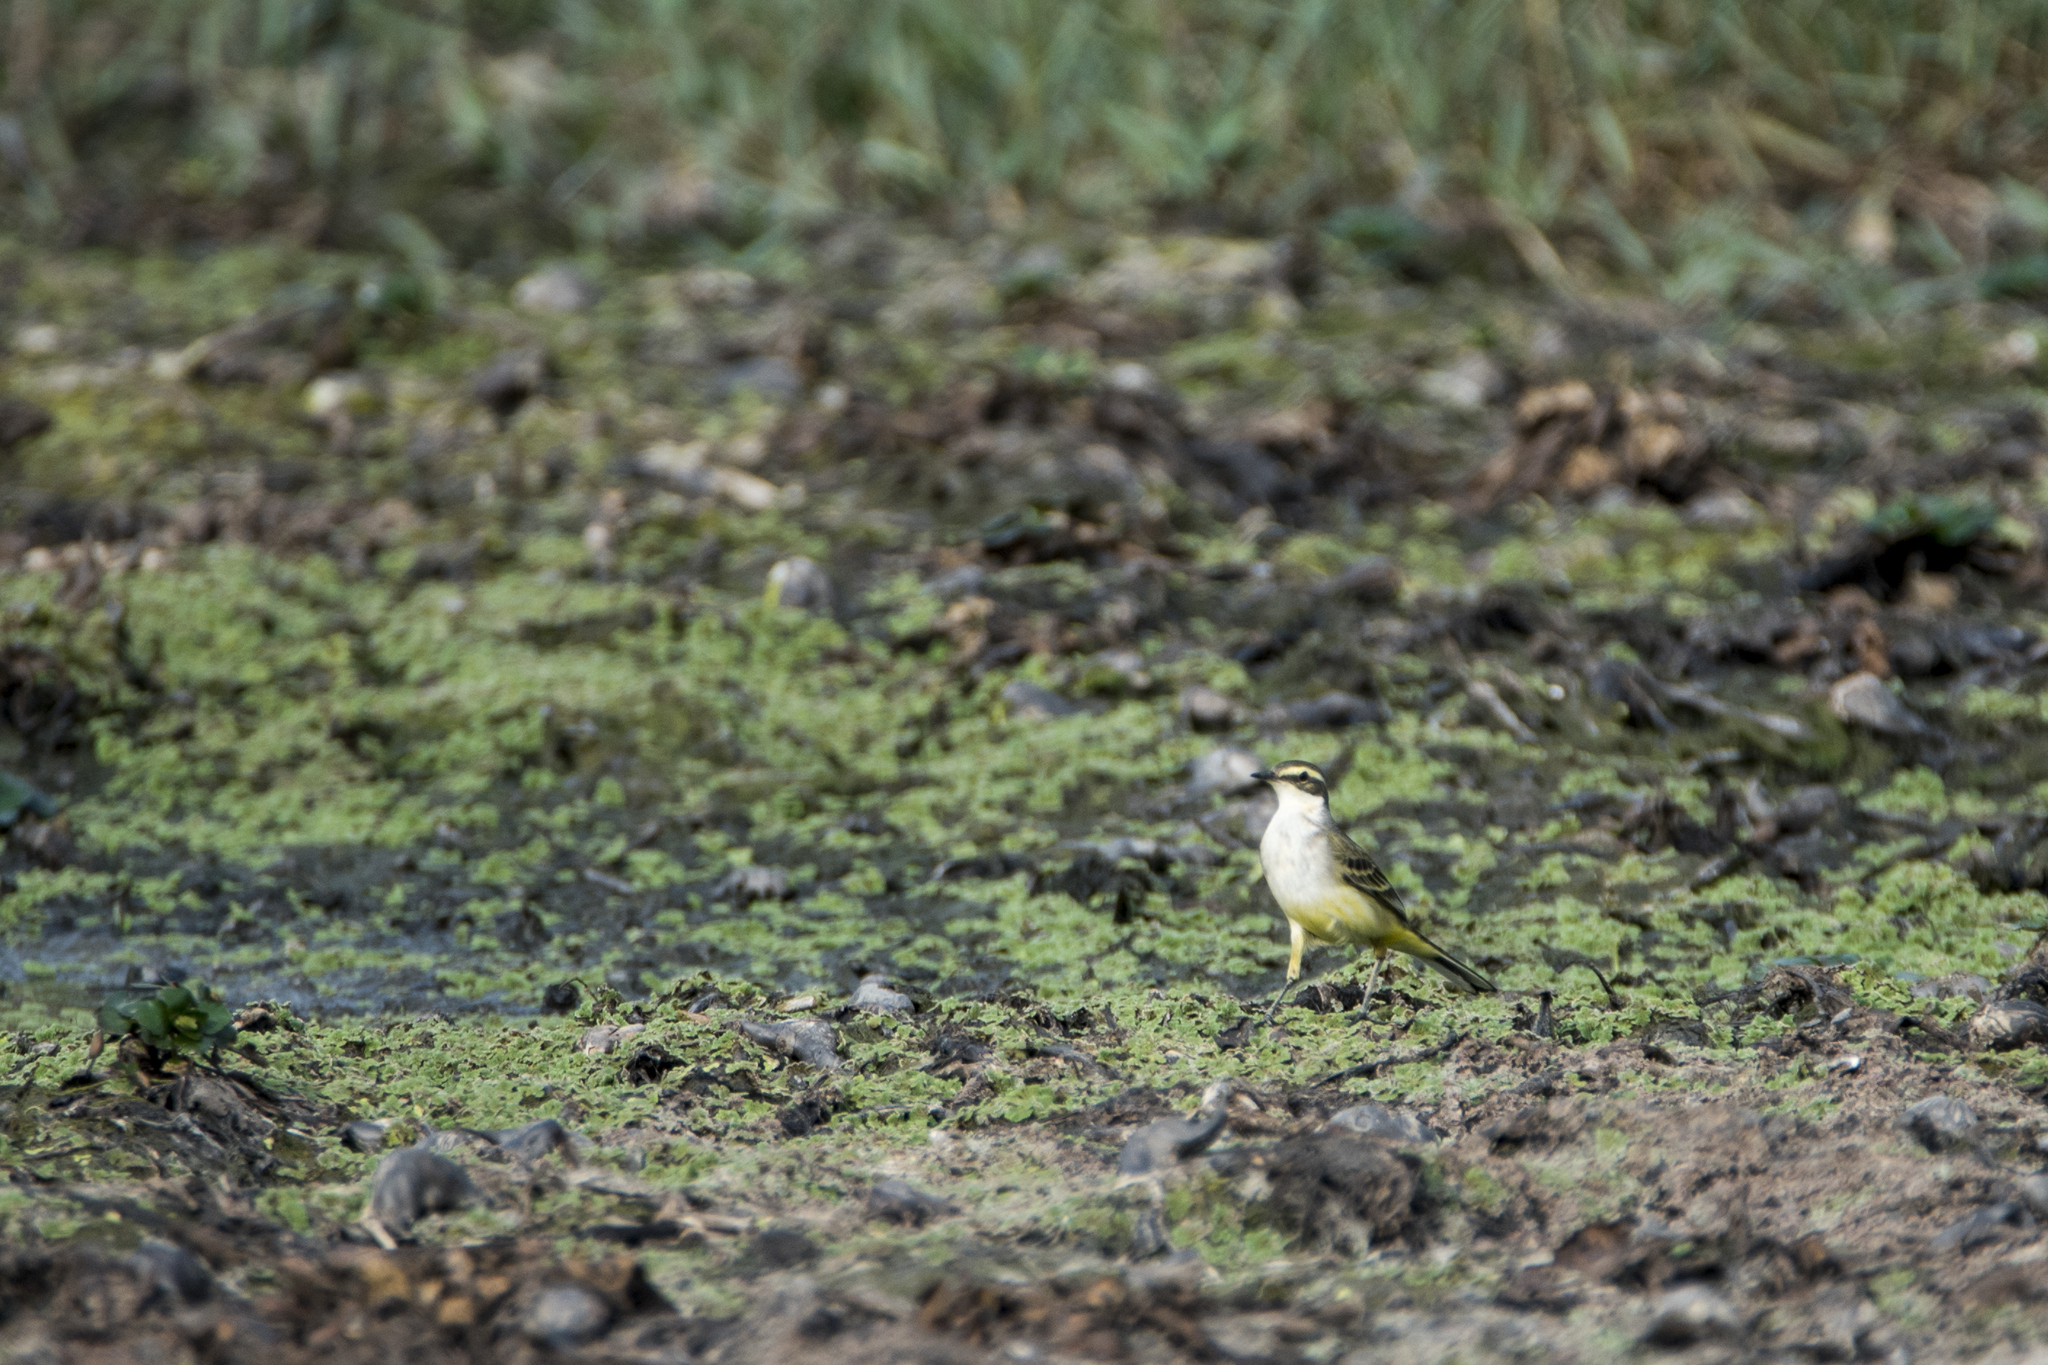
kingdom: Animalia
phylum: Chordata
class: Aves
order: Passeriformes
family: Motacillidae
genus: Motacilla
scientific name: Motacilla tschutschensis
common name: Eastern yellow wagtail
